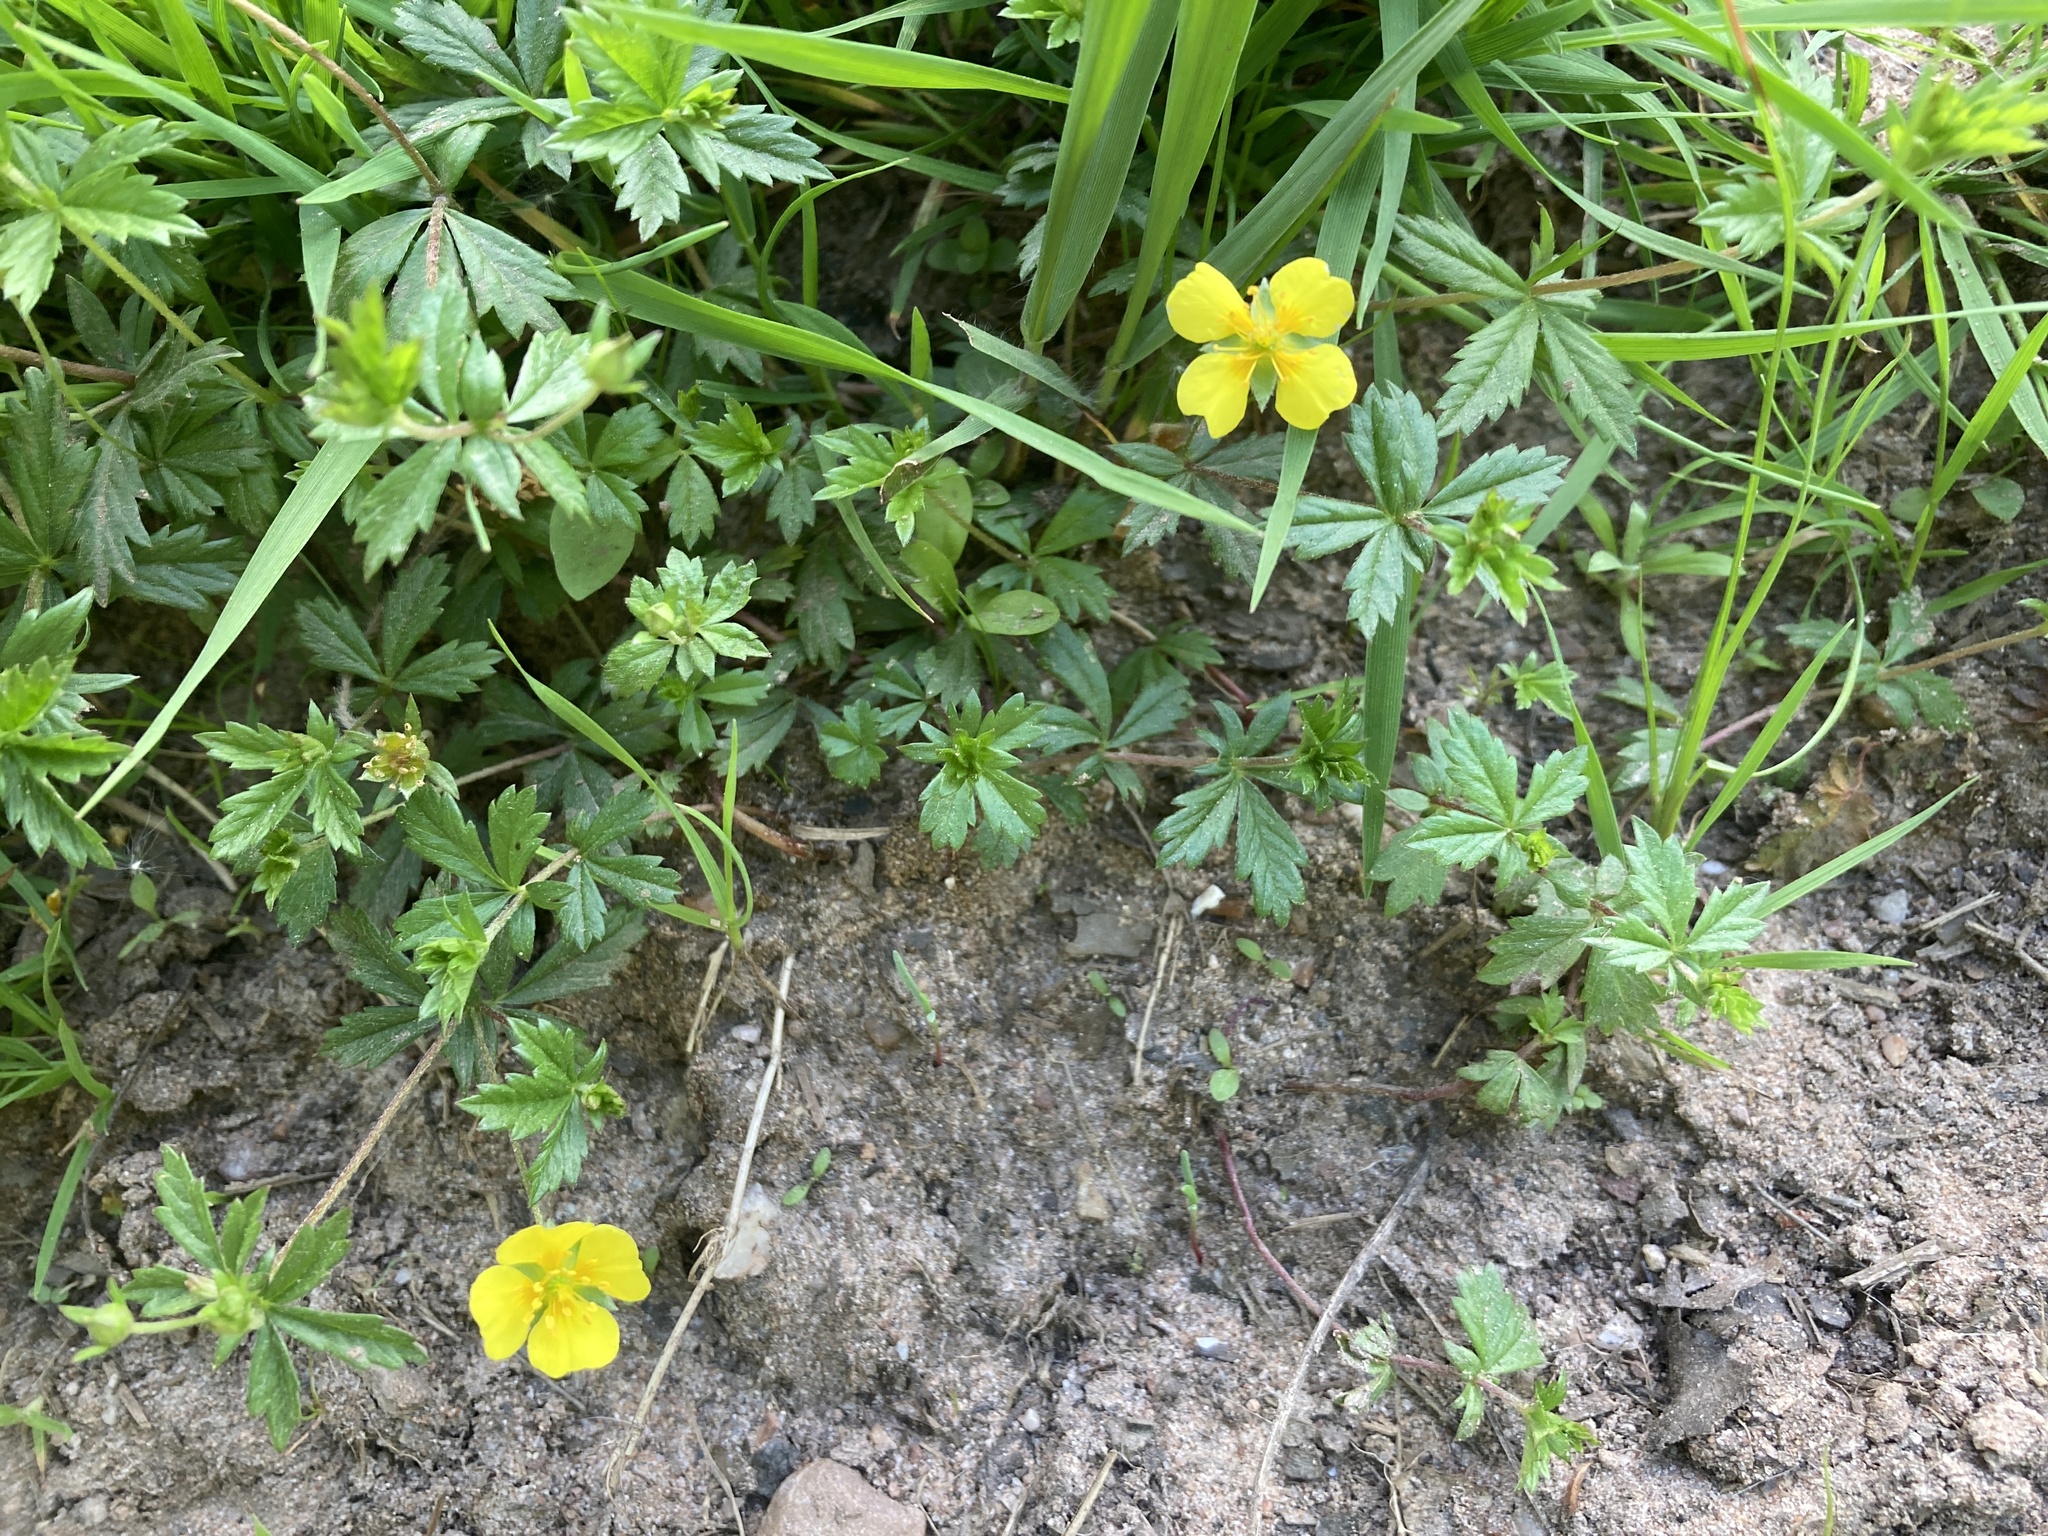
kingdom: Plantae
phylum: Tracheophyta
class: Magnoliopsida
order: Rosales
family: Rosaceae
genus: Potentilla
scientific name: Potentilla erecta
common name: Tormentil
